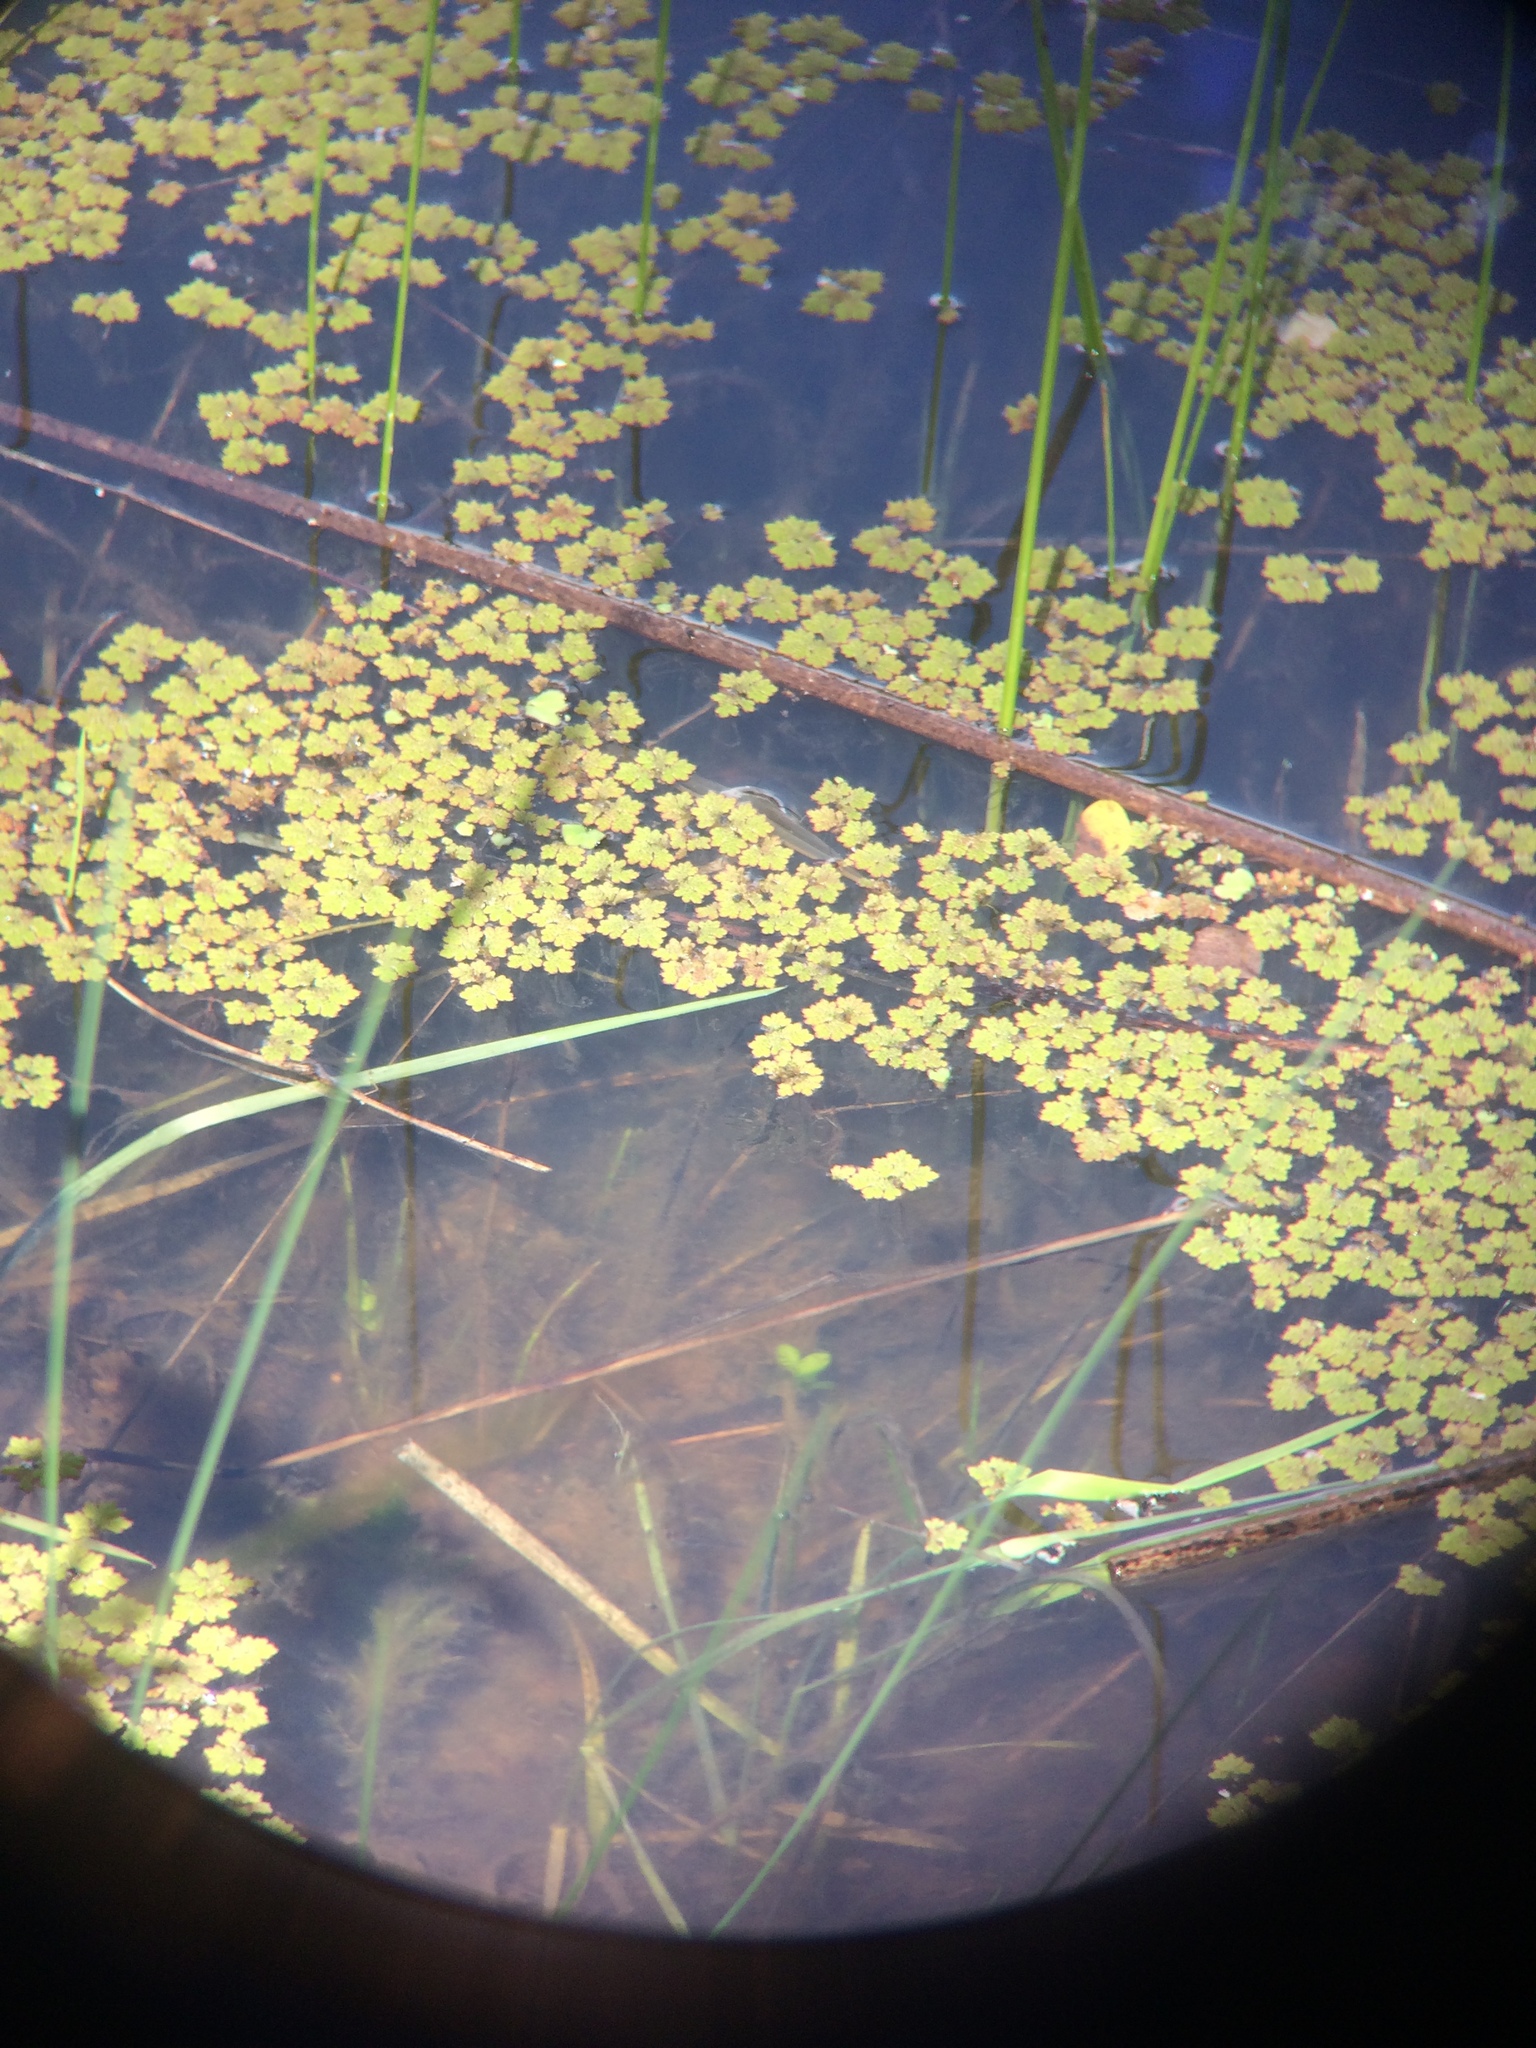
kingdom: Plantae
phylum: Tracheophyta
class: Polypodiopsida
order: Salviniales
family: Salviniaceae
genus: Azolla
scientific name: Azolla filiculoides
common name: Water fern
